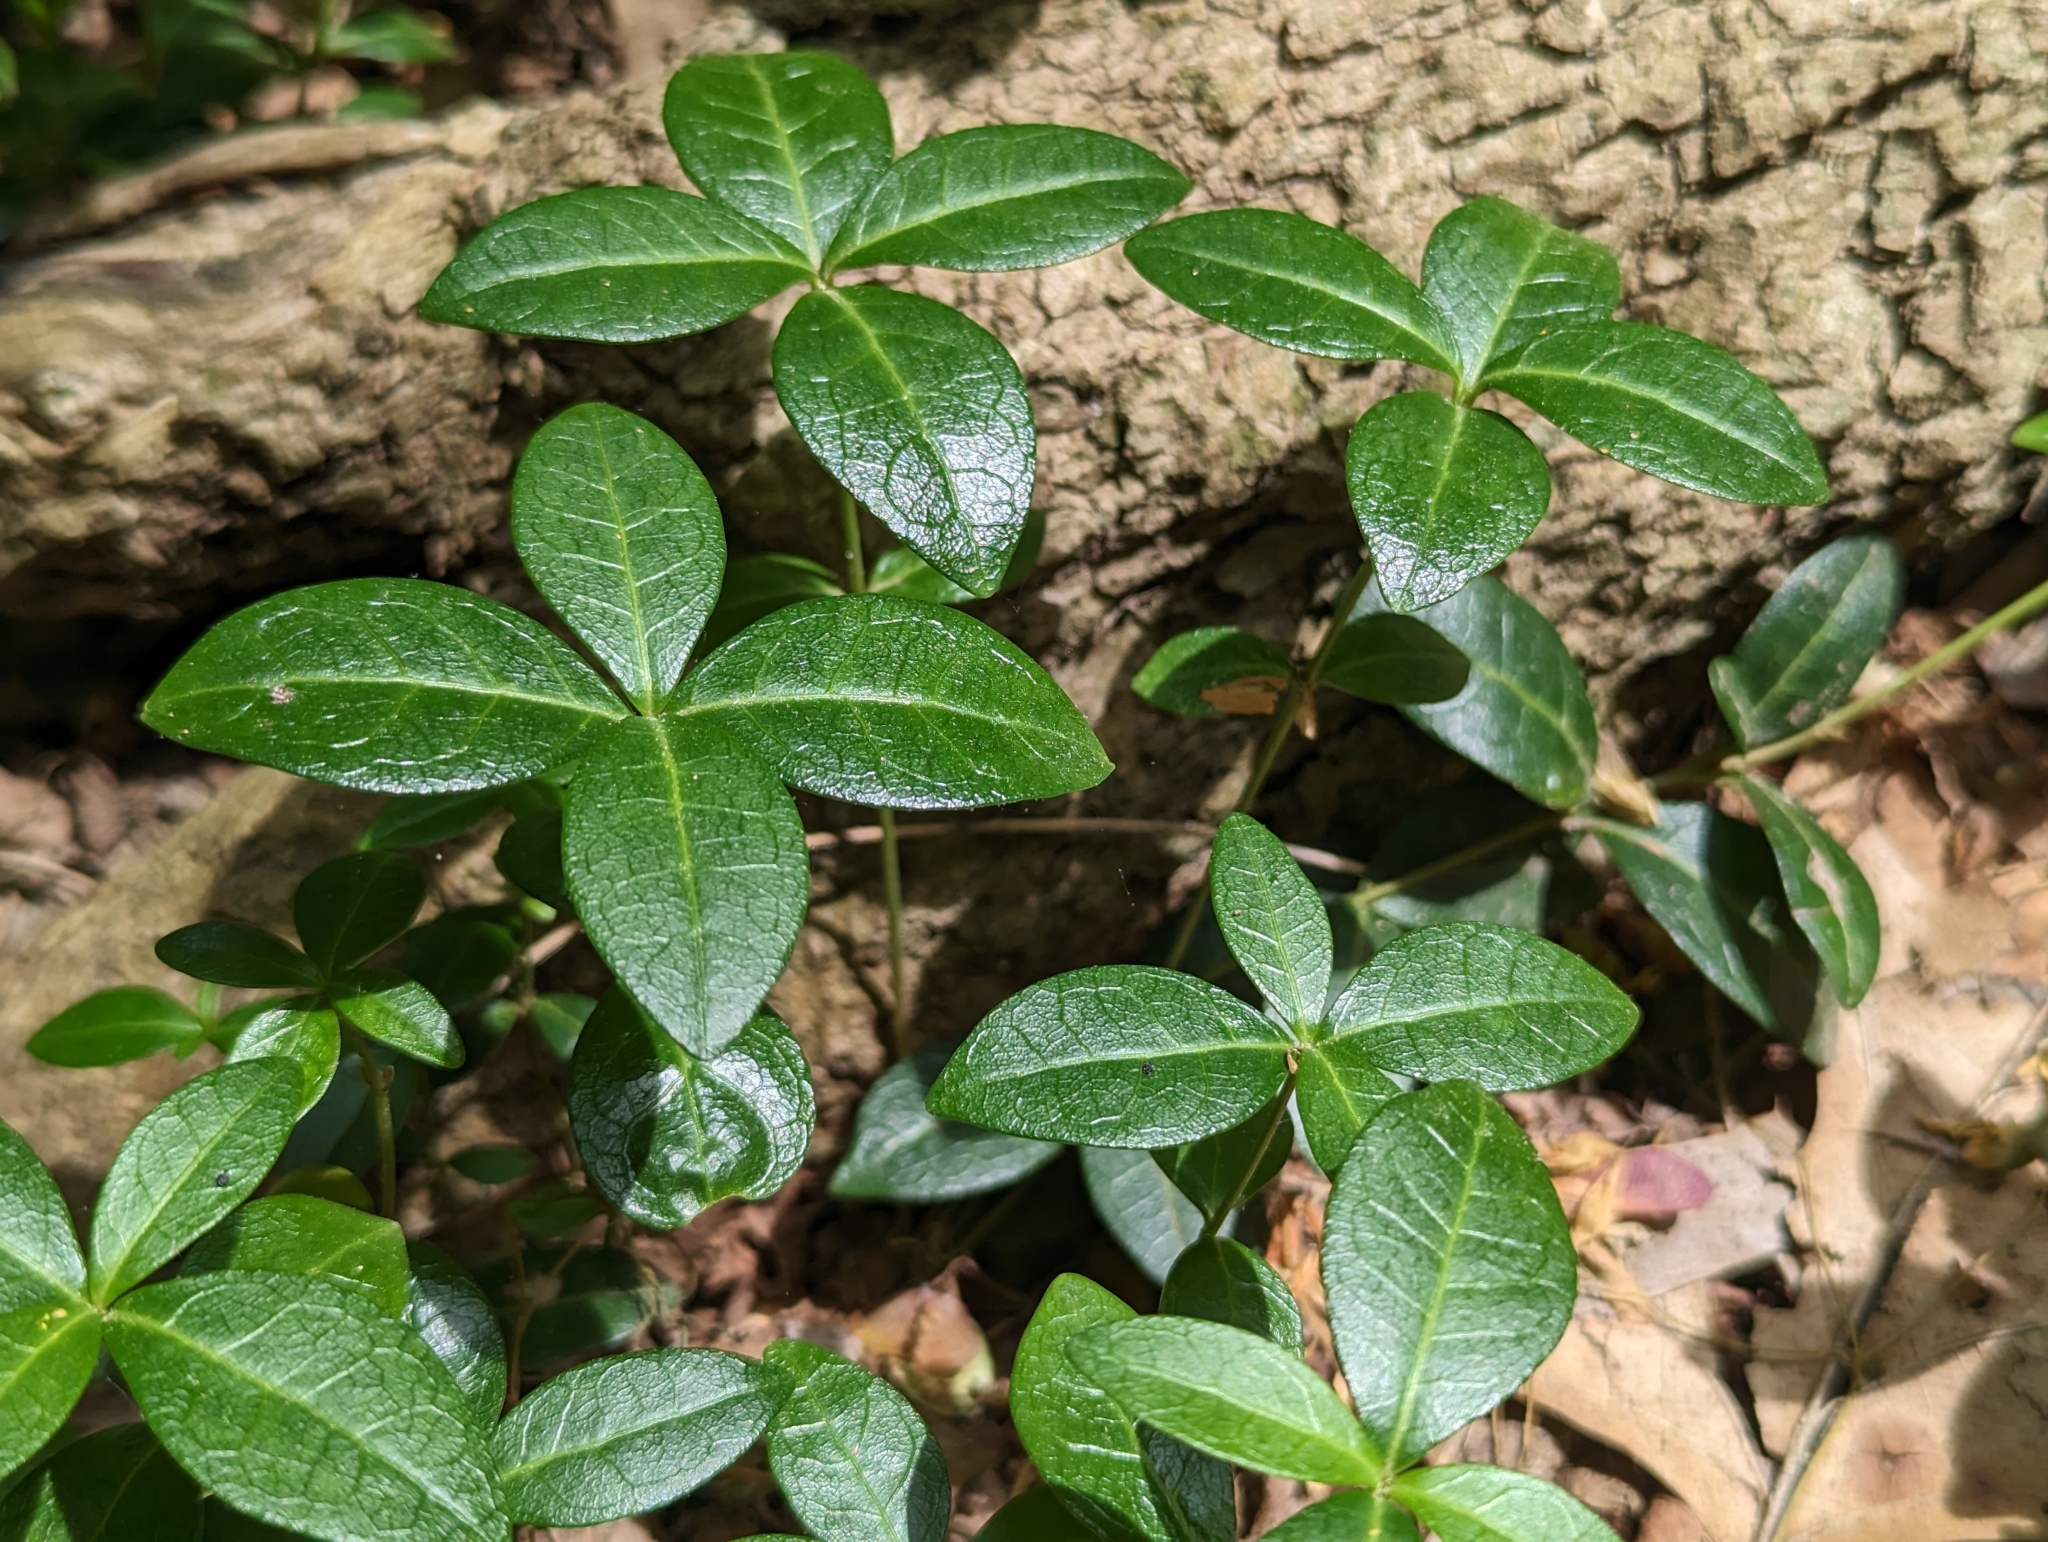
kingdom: Plantae
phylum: Tracheophyta
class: Magnoliopsida
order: Gentianales
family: Apocynaceae
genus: Vinca
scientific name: Vinca minor
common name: Lesser periwinkle
